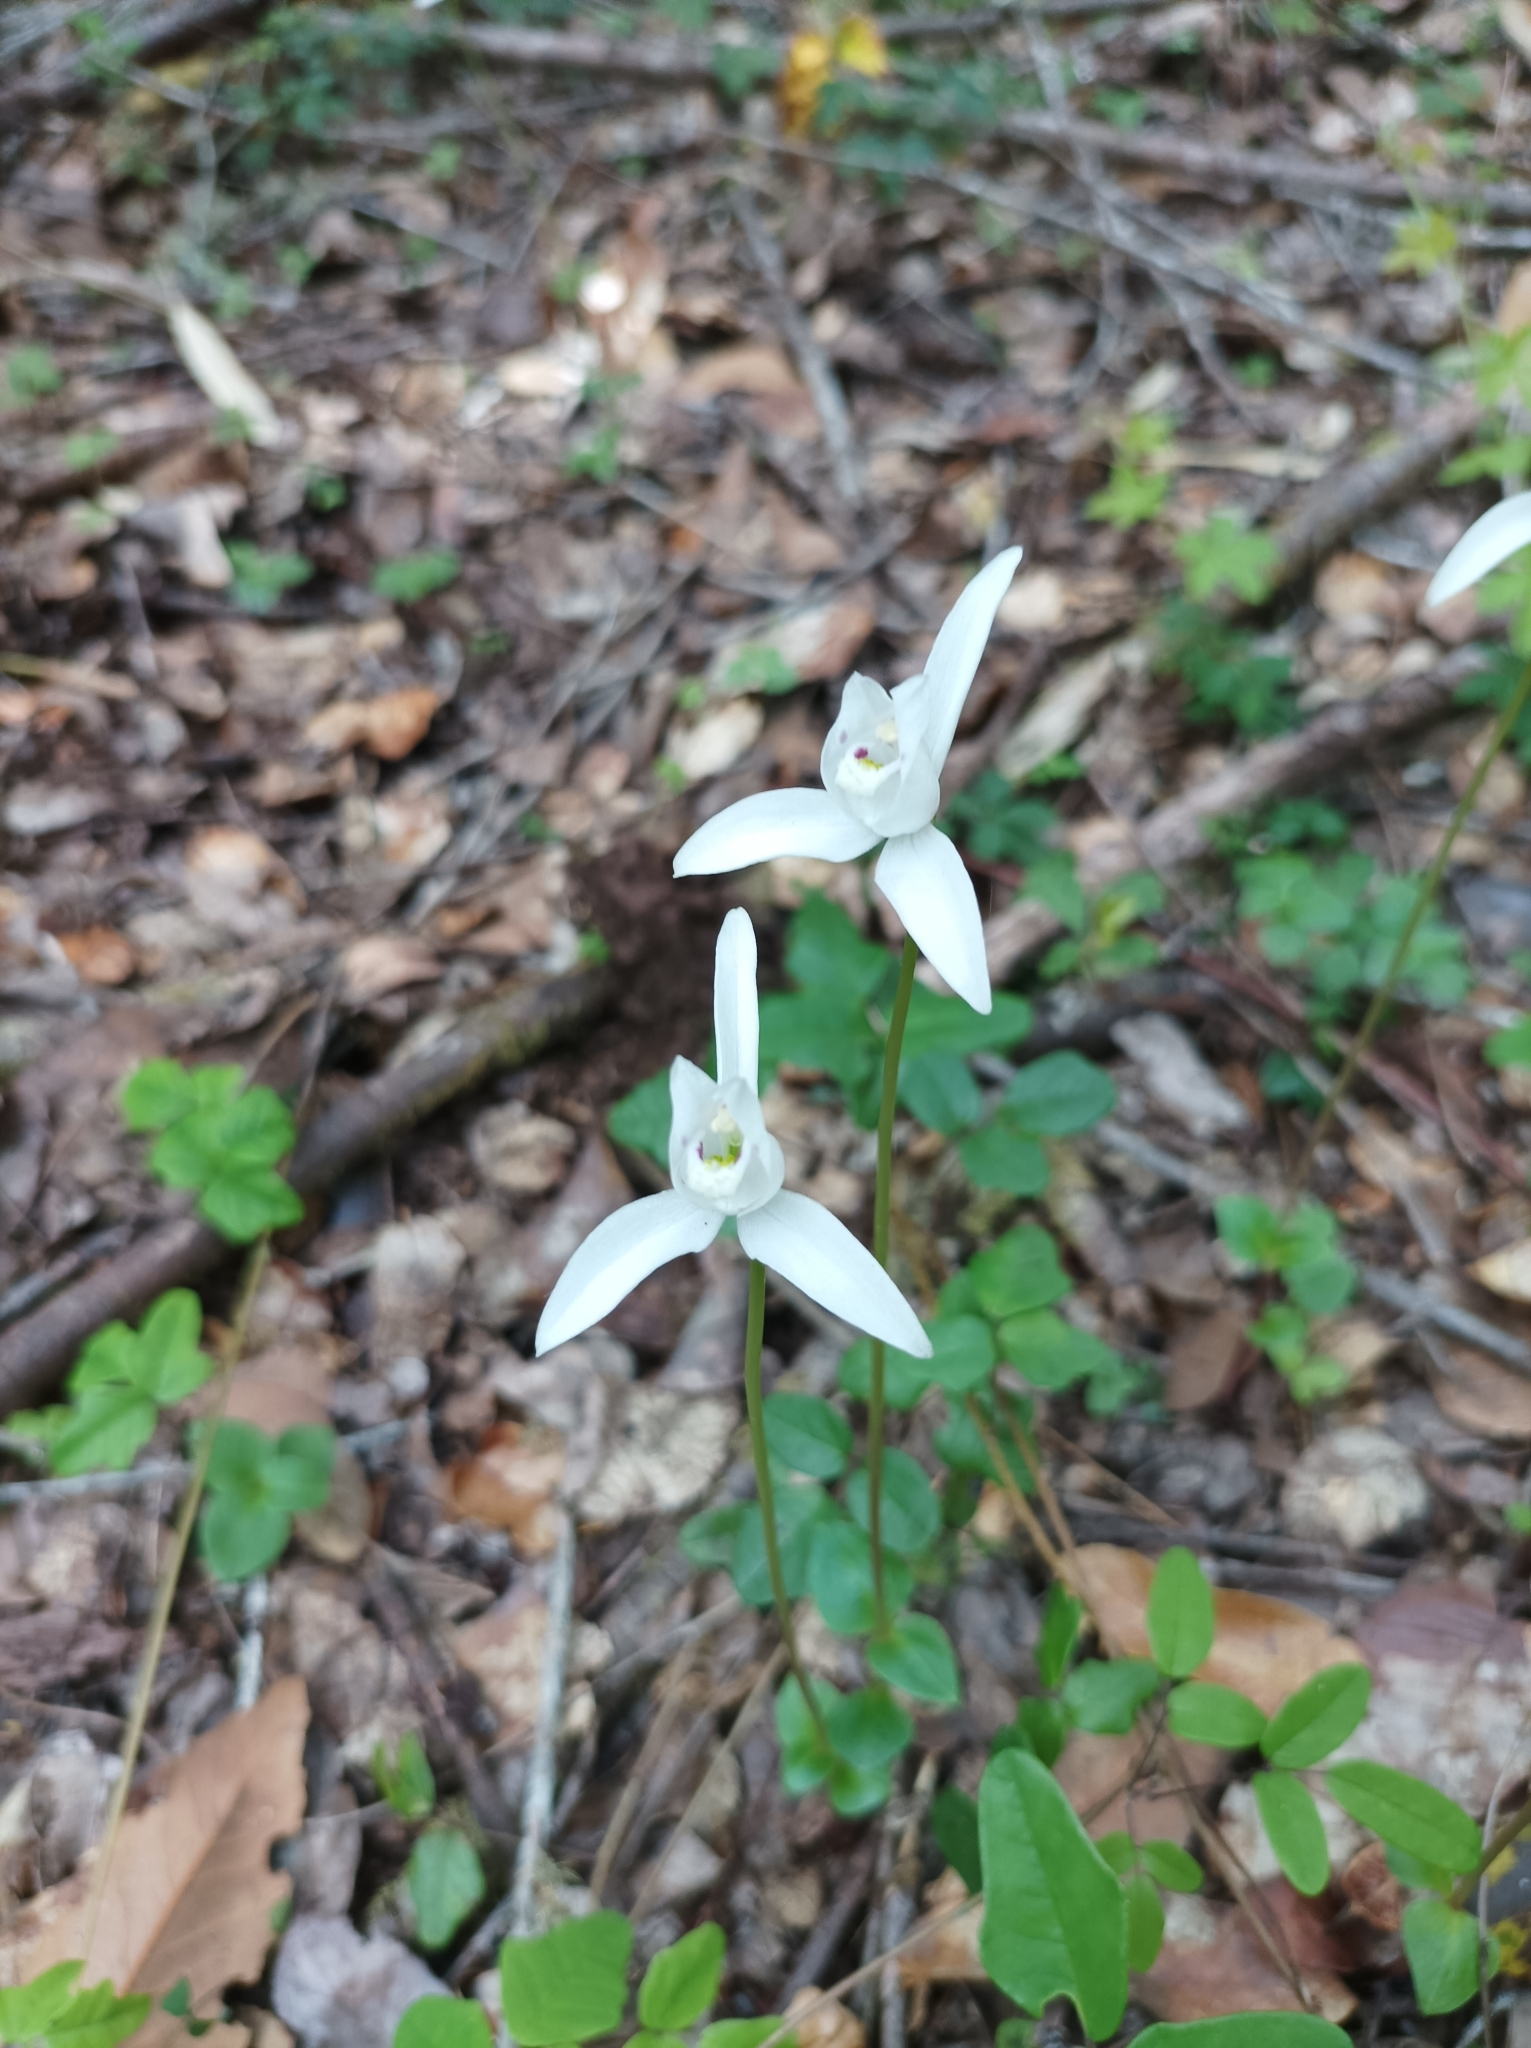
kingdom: Plantae
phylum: Tracheophyta
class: Liliopsida
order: Asparagales
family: Orchidaceae
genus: Codonorchis
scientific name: Codonorchis lessonii
